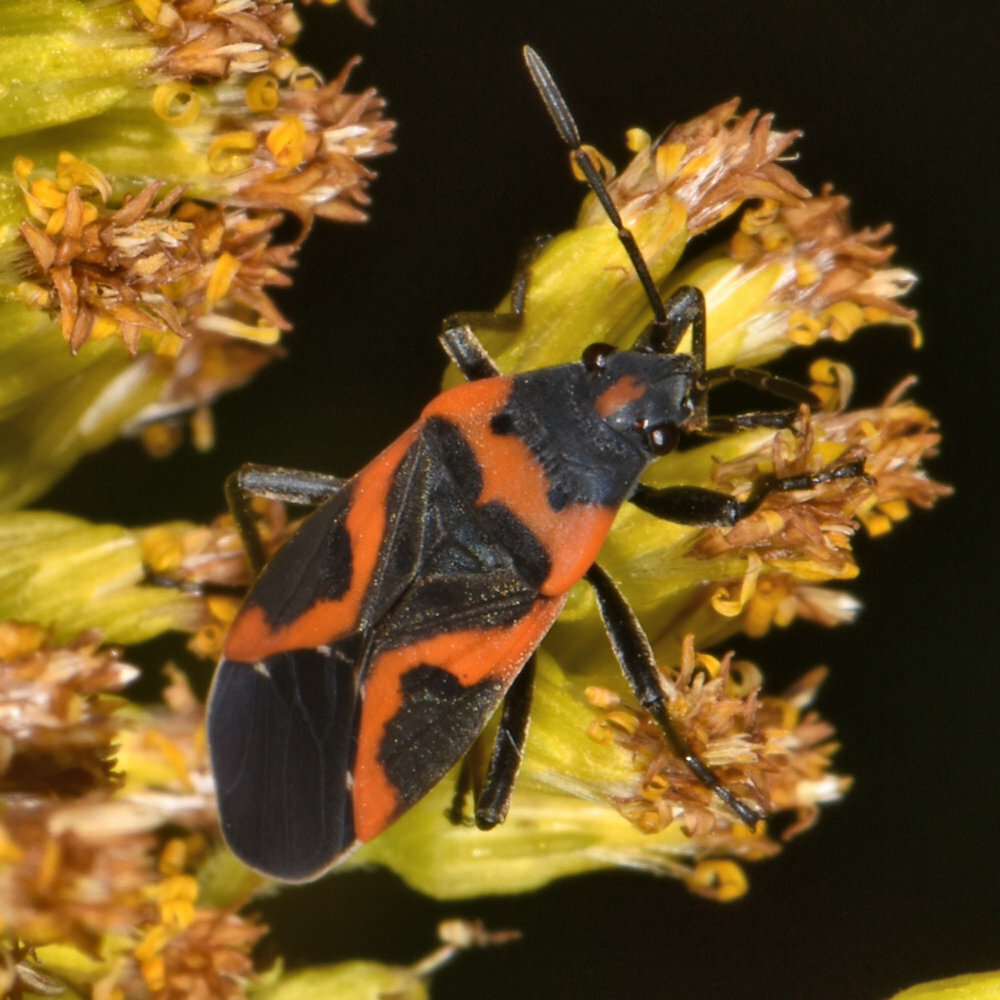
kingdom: Animalia
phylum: Arthropoda
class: Insecta
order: Hemiptera
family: Lygaeidae
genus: Lygaeus
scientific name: Lygaeus kalmii
